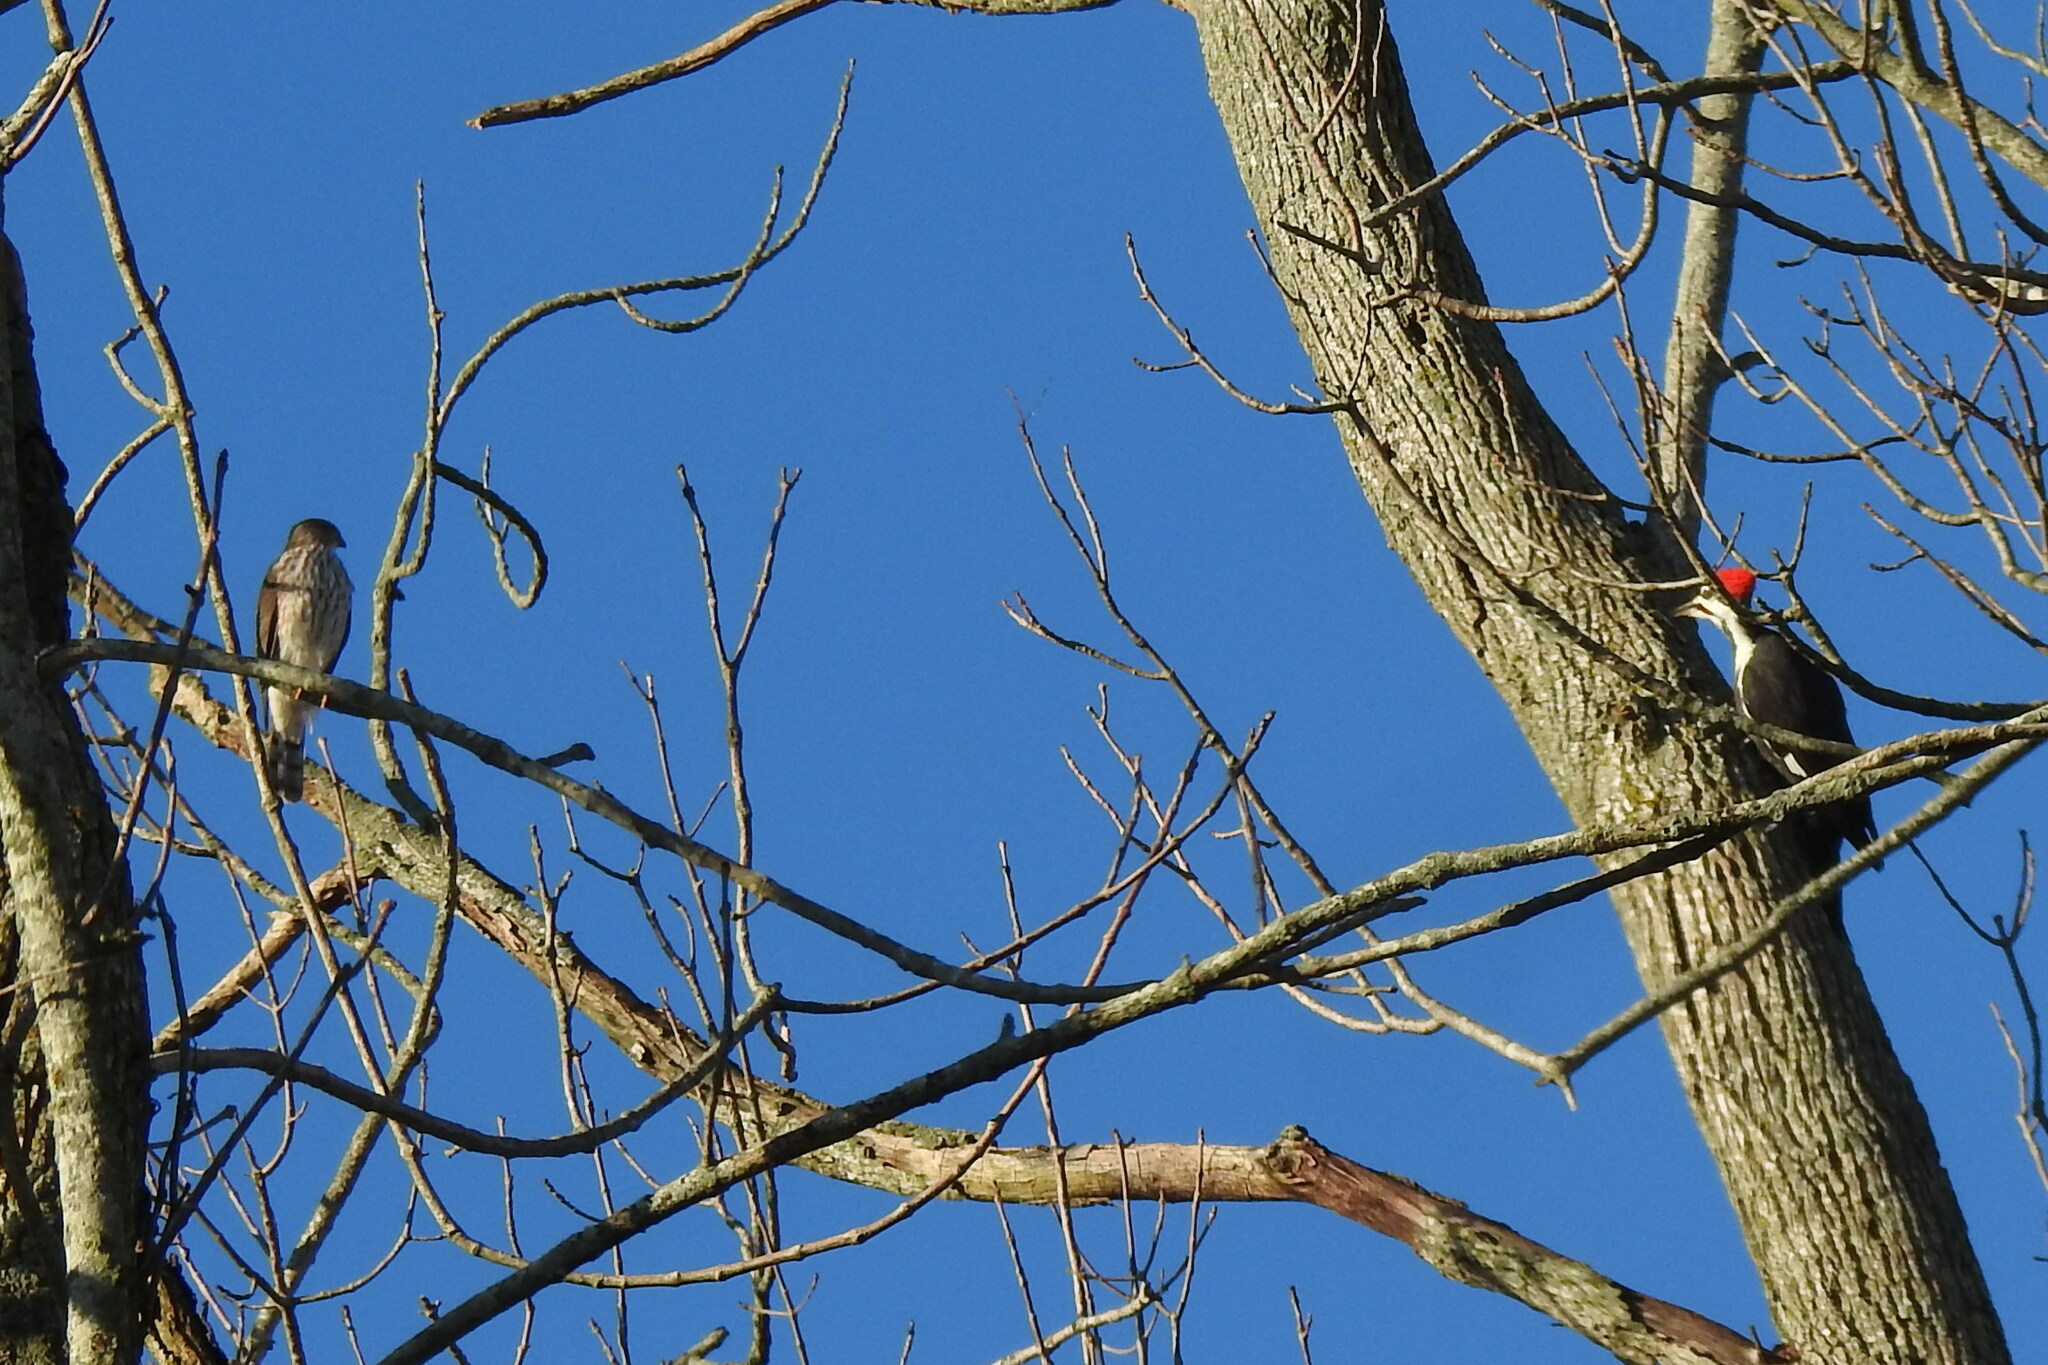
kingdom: Animalia
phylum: Chordata
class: Aves
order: Accipitriformes
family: Accipitridae
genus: Accipiter
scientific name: Accipiter striatus
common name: Sharp-shinned hawk
